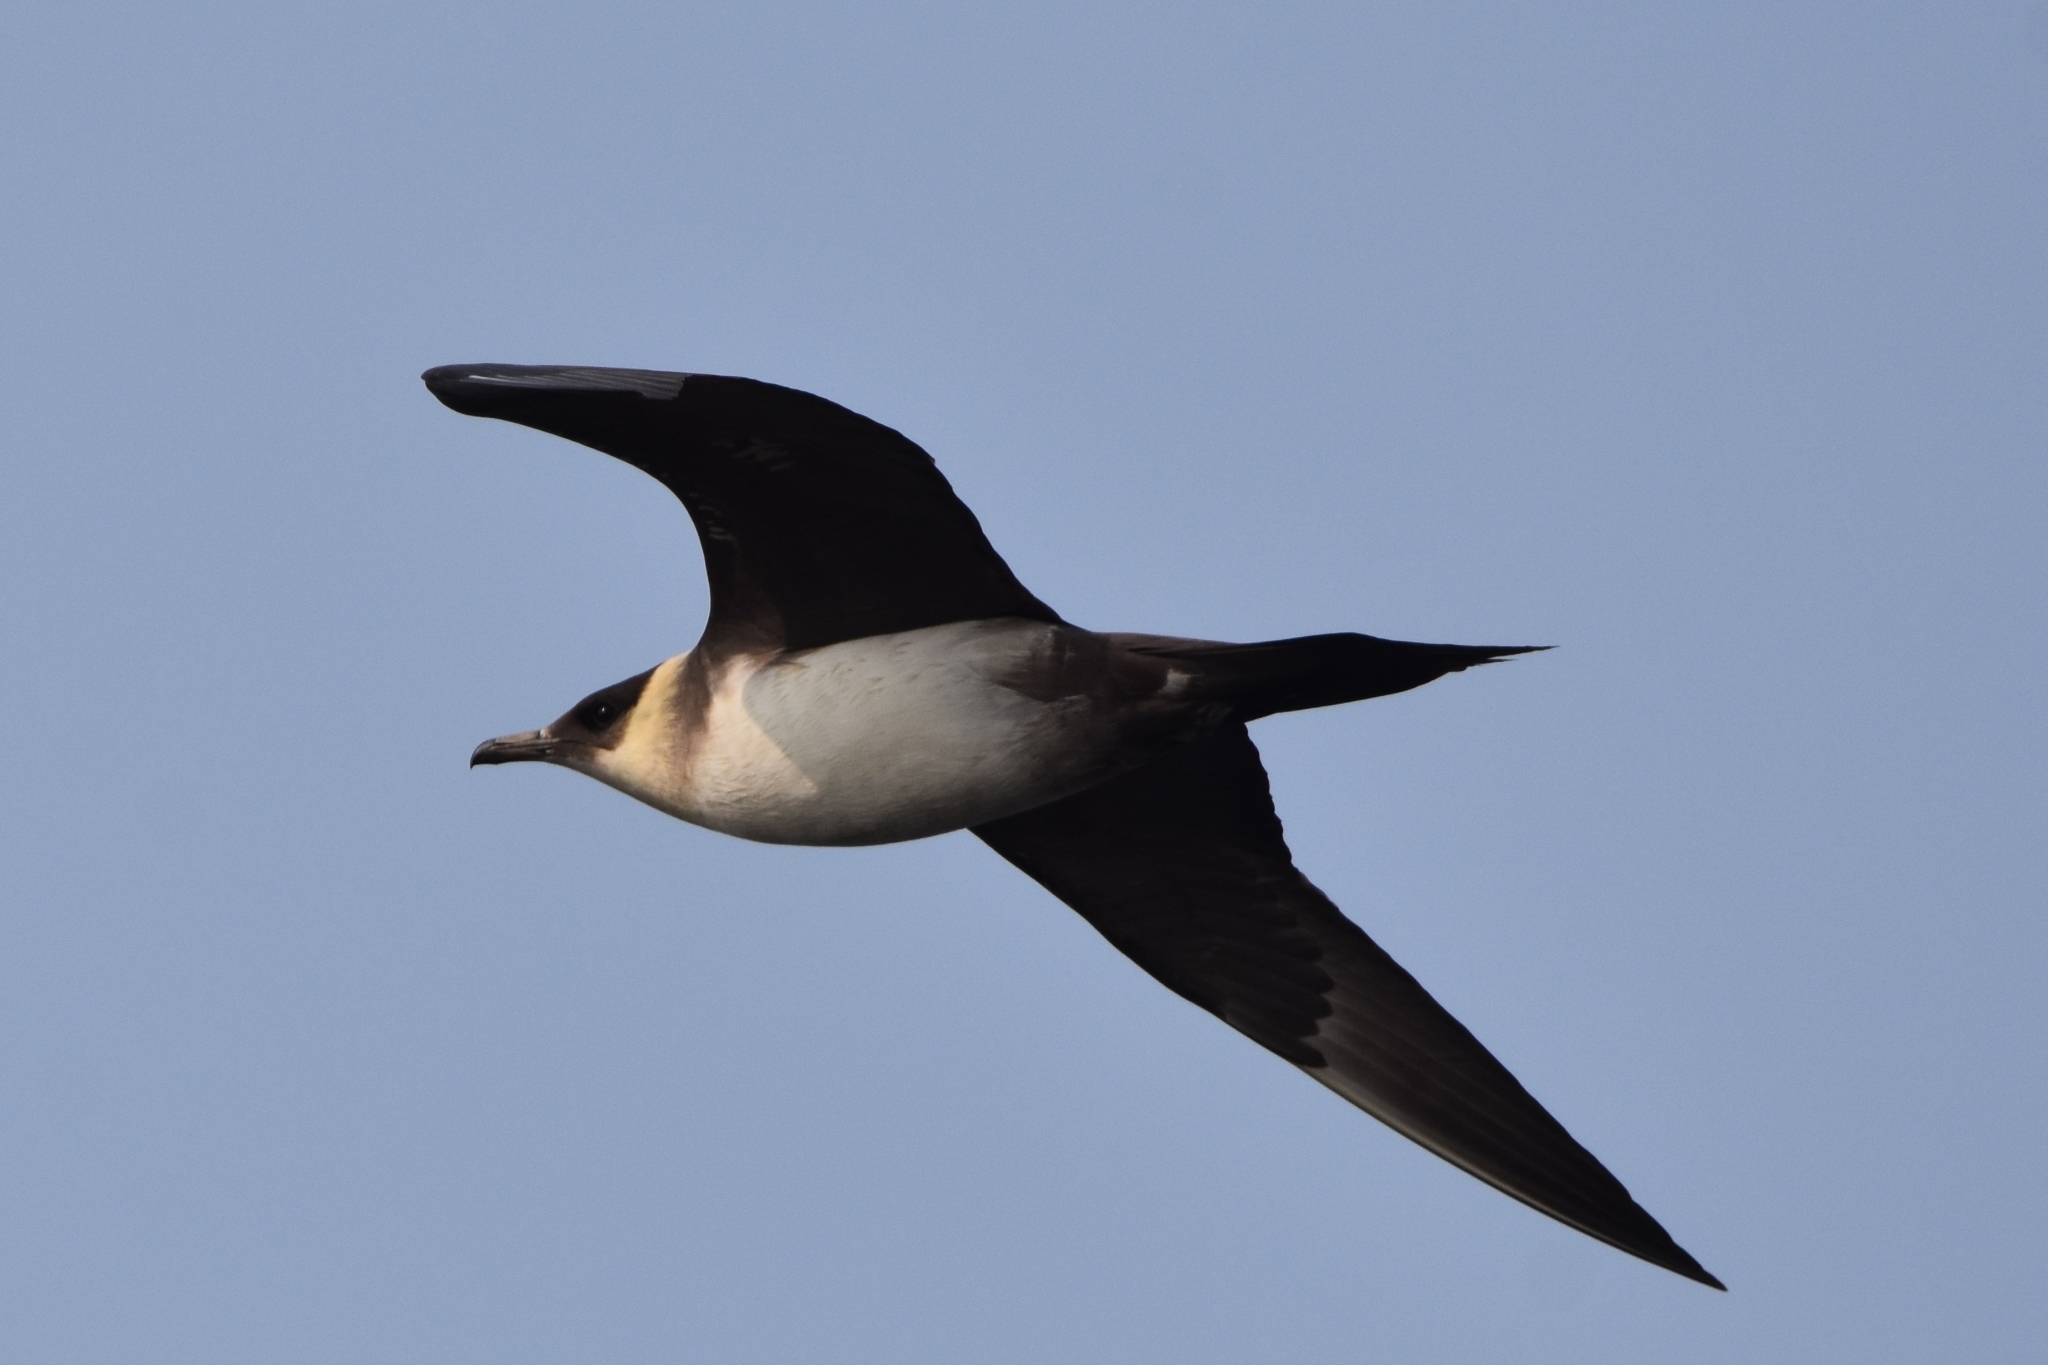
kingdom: Animalia
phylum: Chordata
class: Aves
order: Charadriiformes
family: Stercorariidae
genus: Stercorarius
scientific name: Stercorarius parasiticus
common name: Parasitic jaeger
